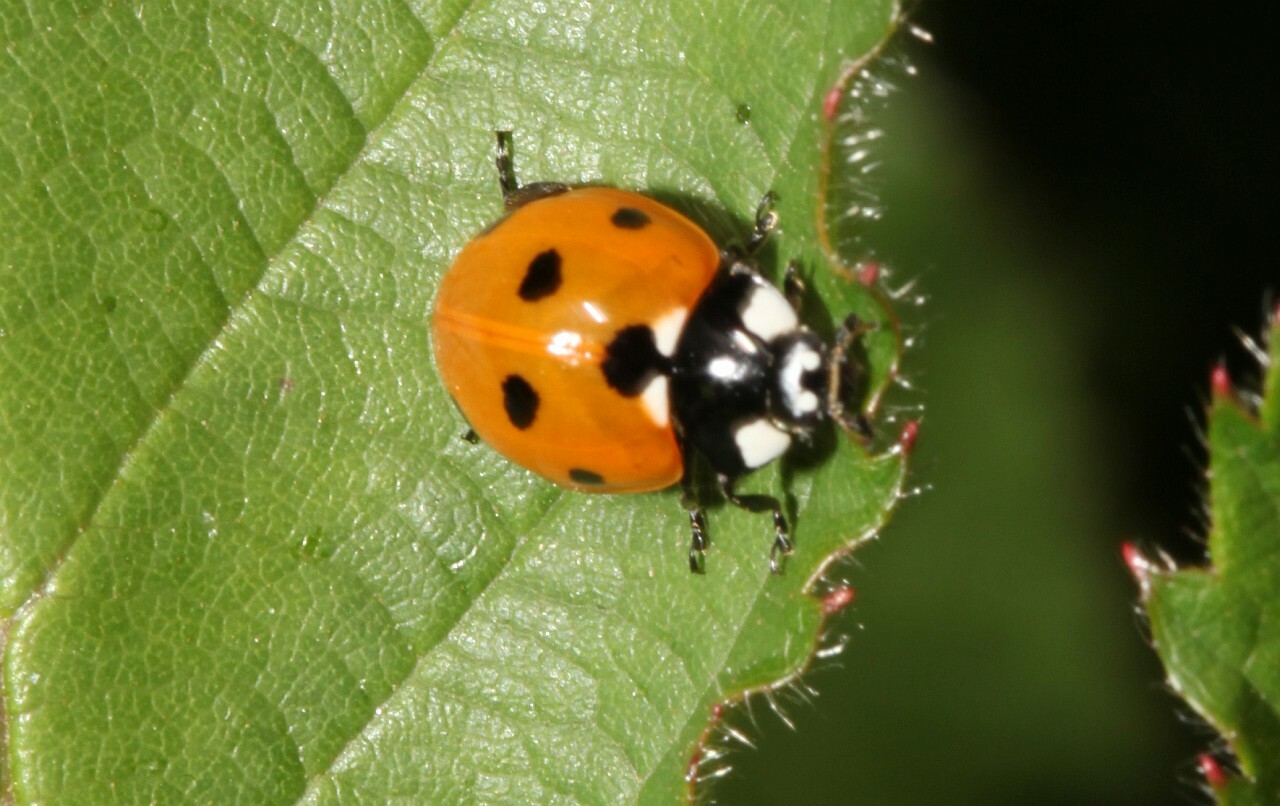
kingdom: Animalia
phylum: Arthropoda
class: Insecta
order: Coleoptera
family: Coccinellidae
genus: Coccinella
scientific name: Coccinella septempunctata
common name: Sevenspotted lady beetle
